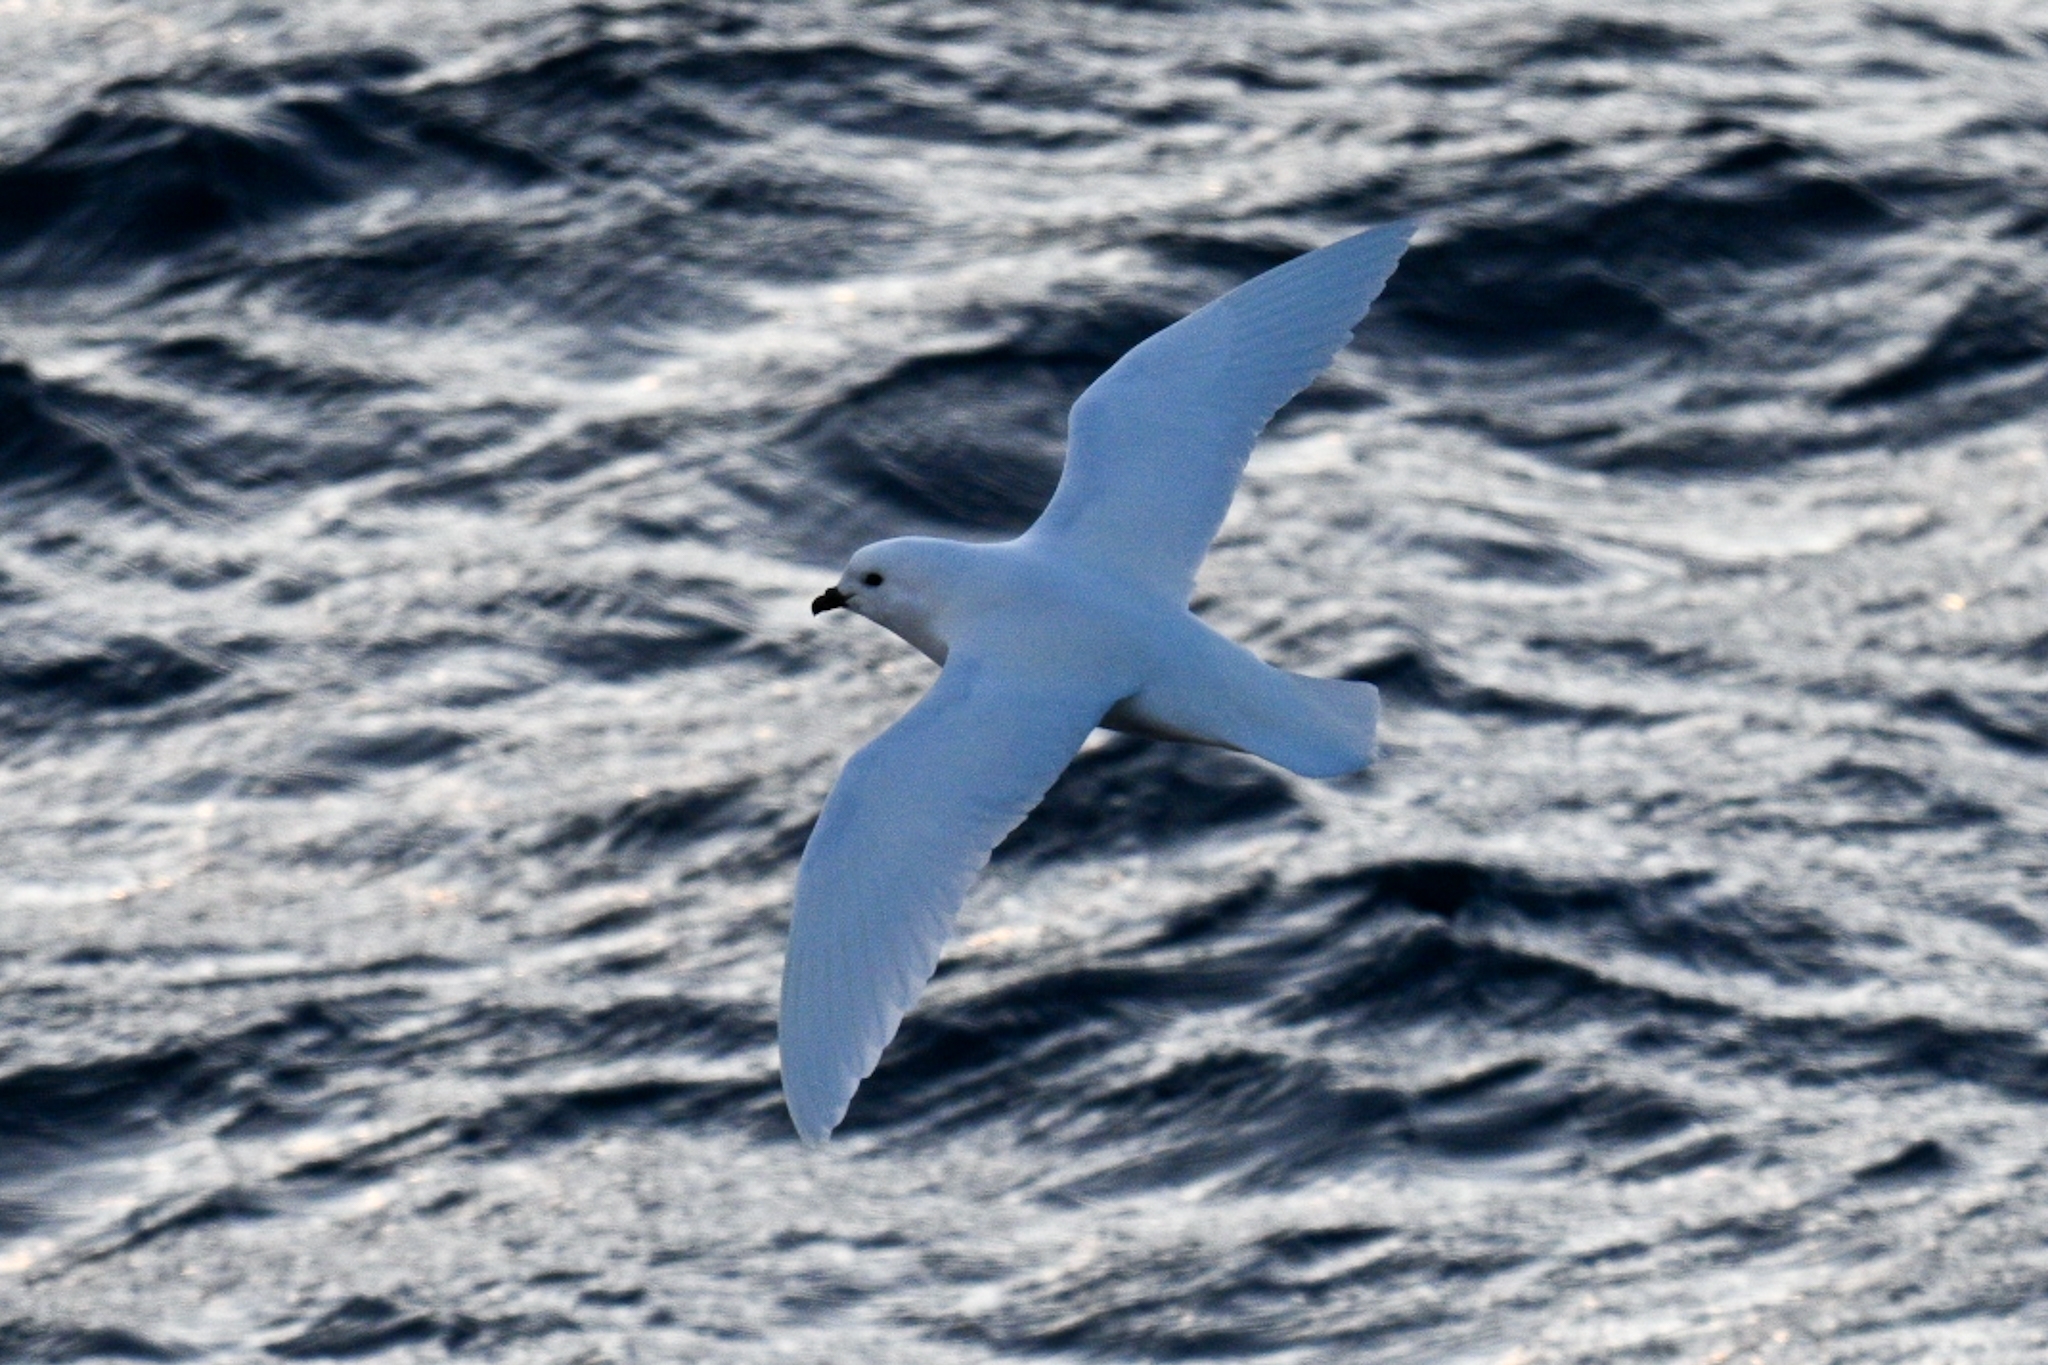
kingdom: Animalia
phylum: Chordata
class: Aves
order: Procellariiformes
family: Procellariidae
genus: Pagodroma
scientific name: Pagodroma nivea
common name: Snow petrel
